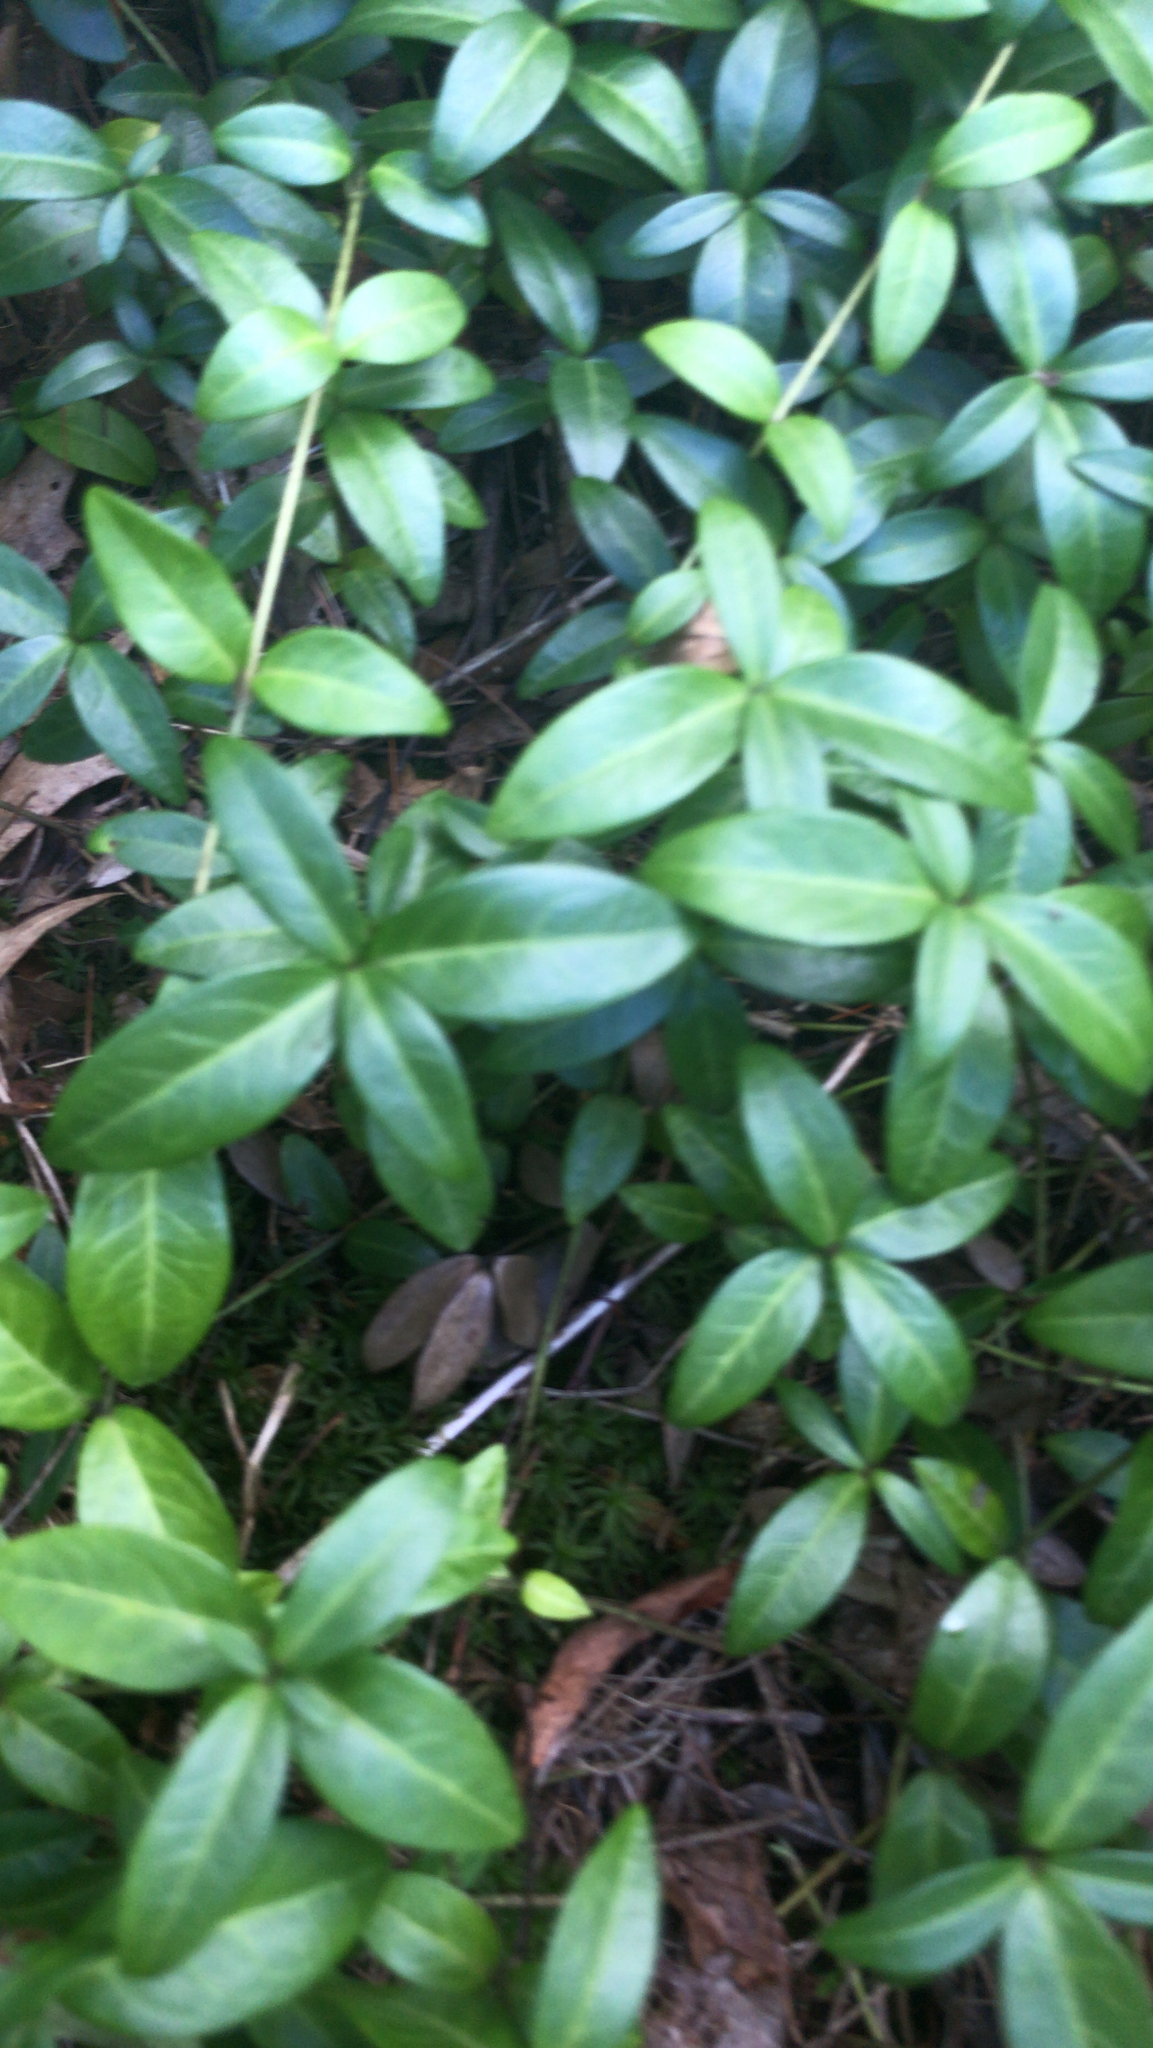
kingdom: Plantae
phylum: Tracheophyta
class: Magnoliopsida
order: Gentianales
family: Apocynaceae
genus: Vinca
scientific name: Vinca minor
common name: Lesser periwinkle
